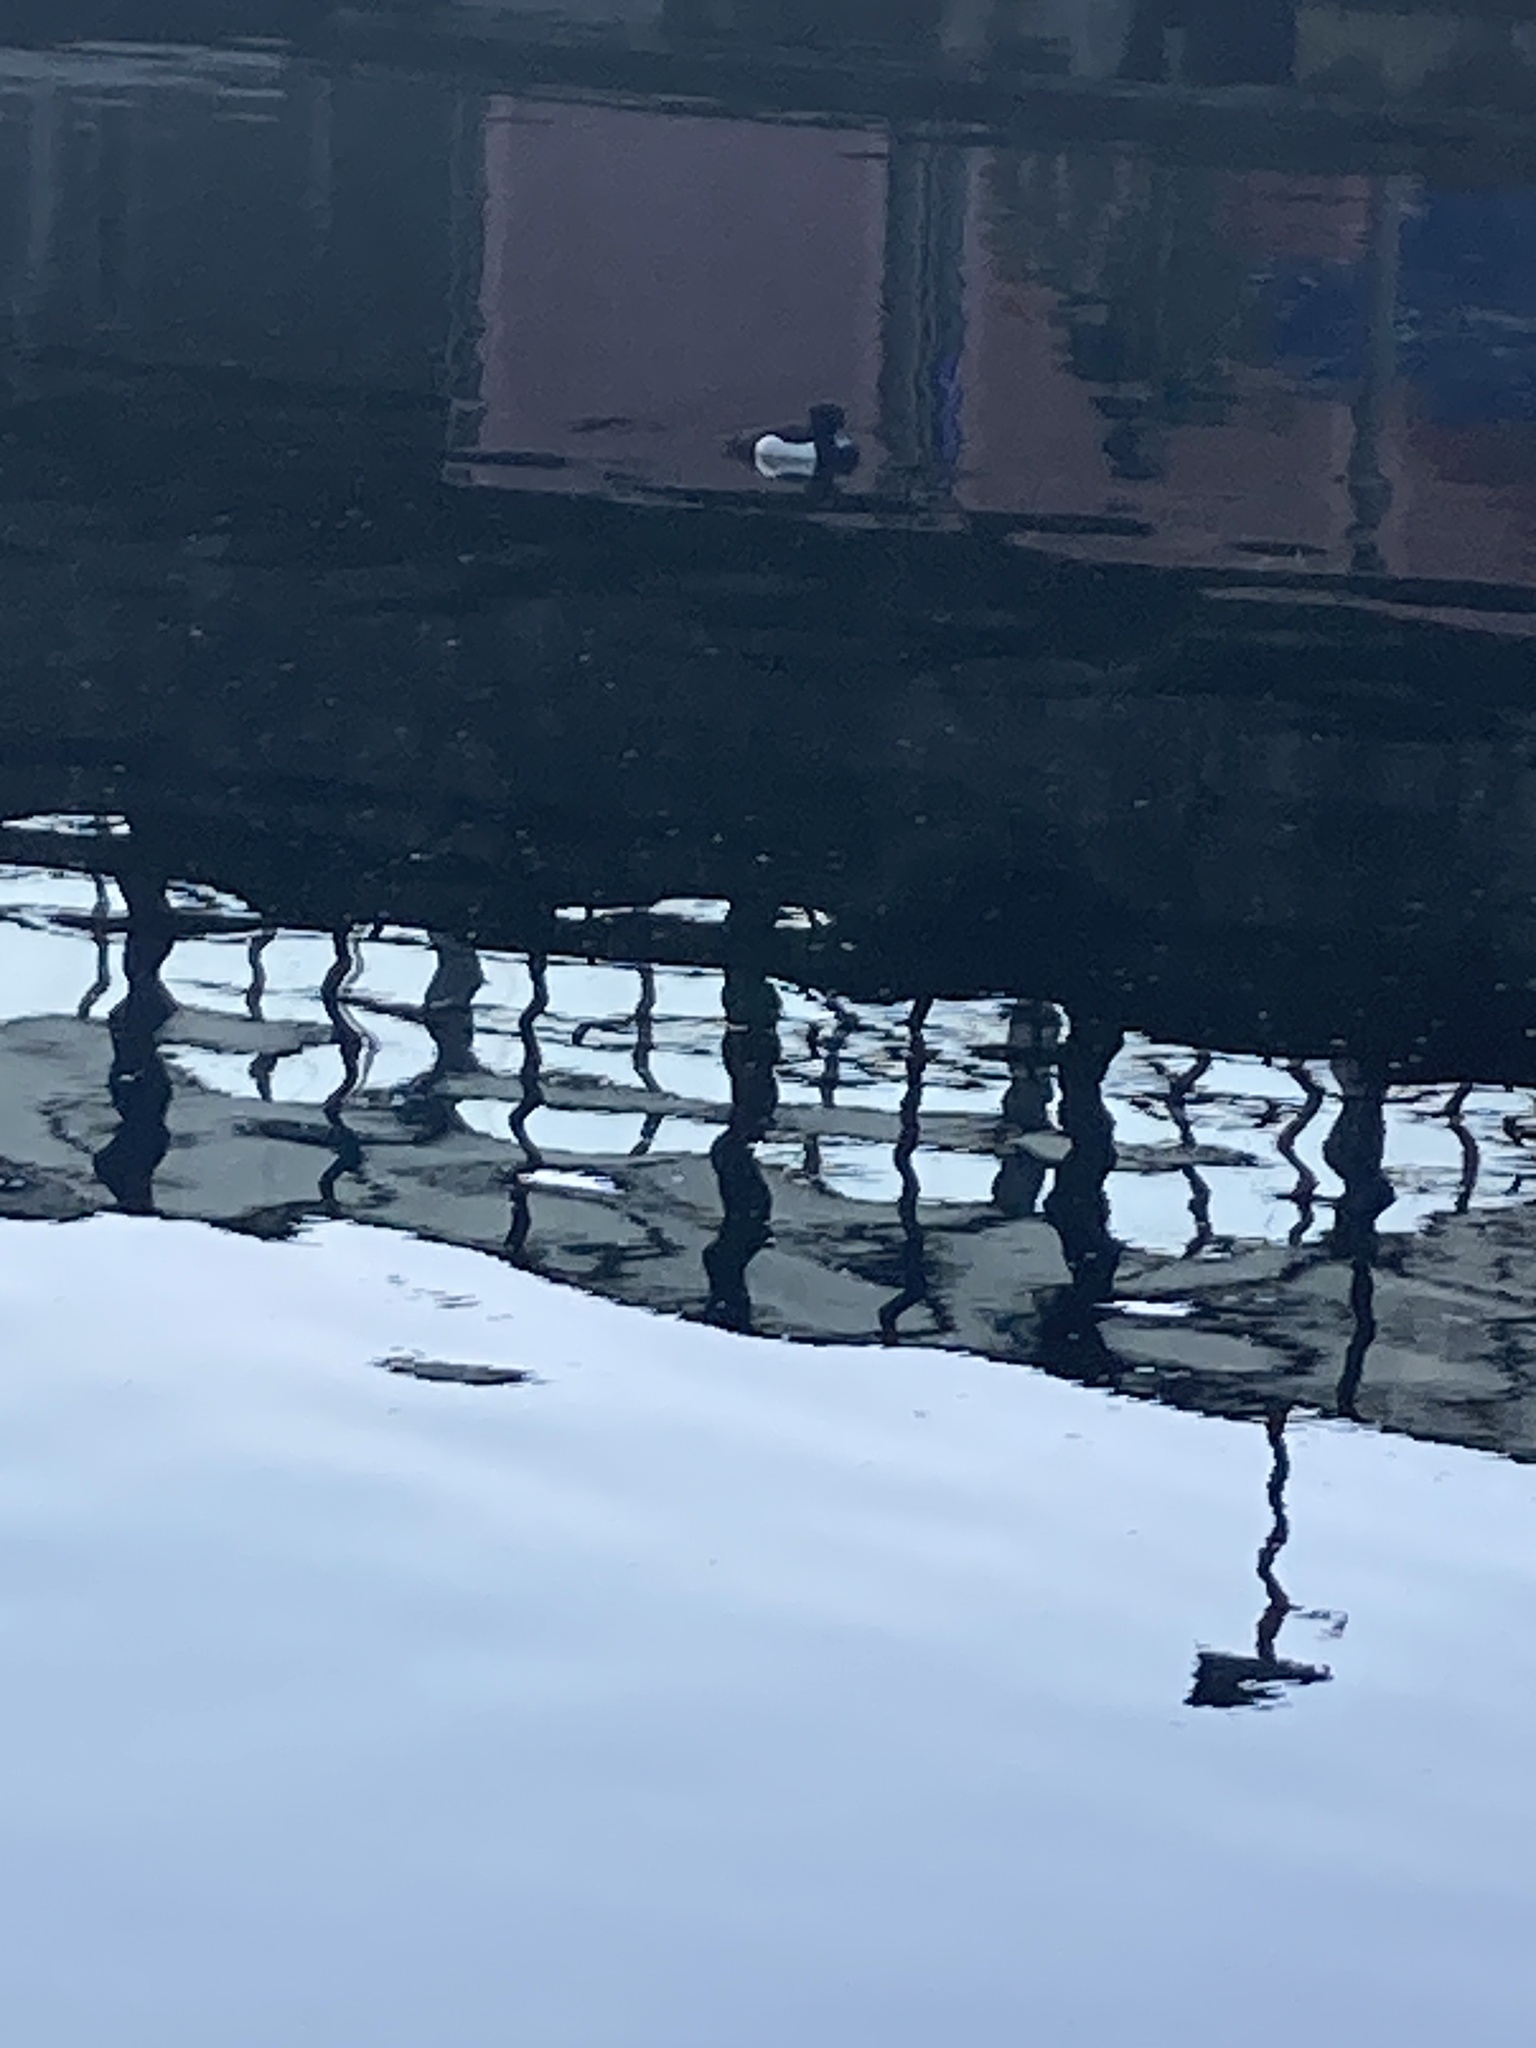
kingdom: Animalia
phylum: Chordata
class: Aves
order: Anseriformes
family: Anatidae
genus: Aythya
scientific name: Aythya fuligula
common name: Tufted duck
